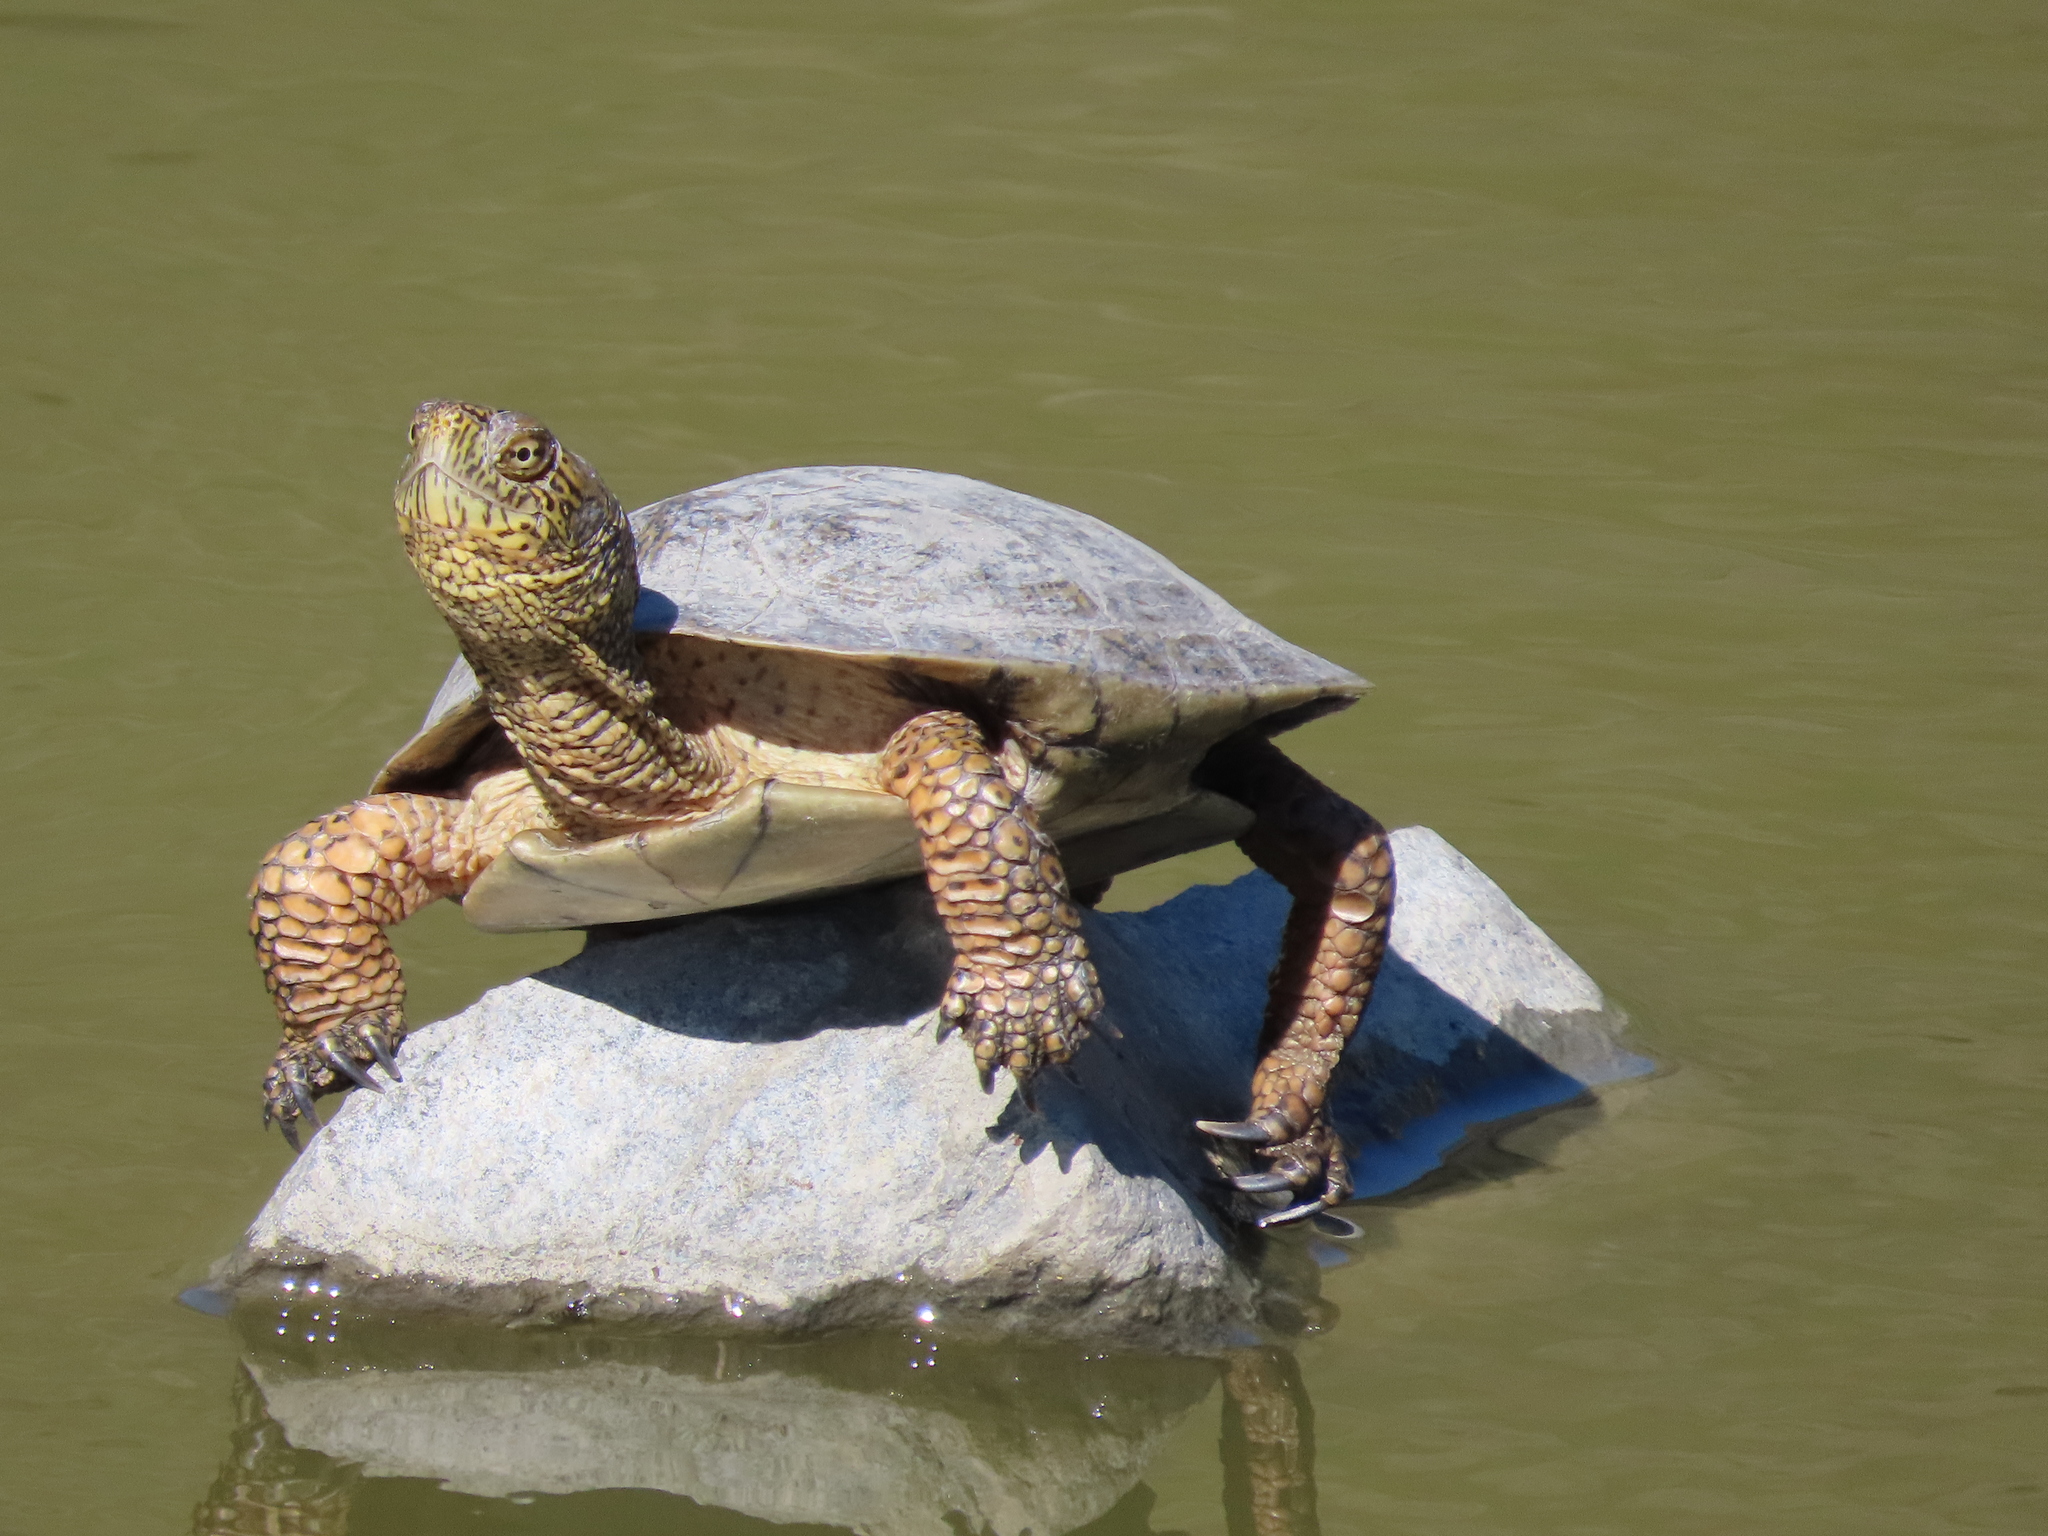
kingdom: Animalia
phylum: Chordata
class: Testudines
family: Emydidae
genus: Actinemys
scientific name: Actinemys marmorata
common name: Western pond turtle
